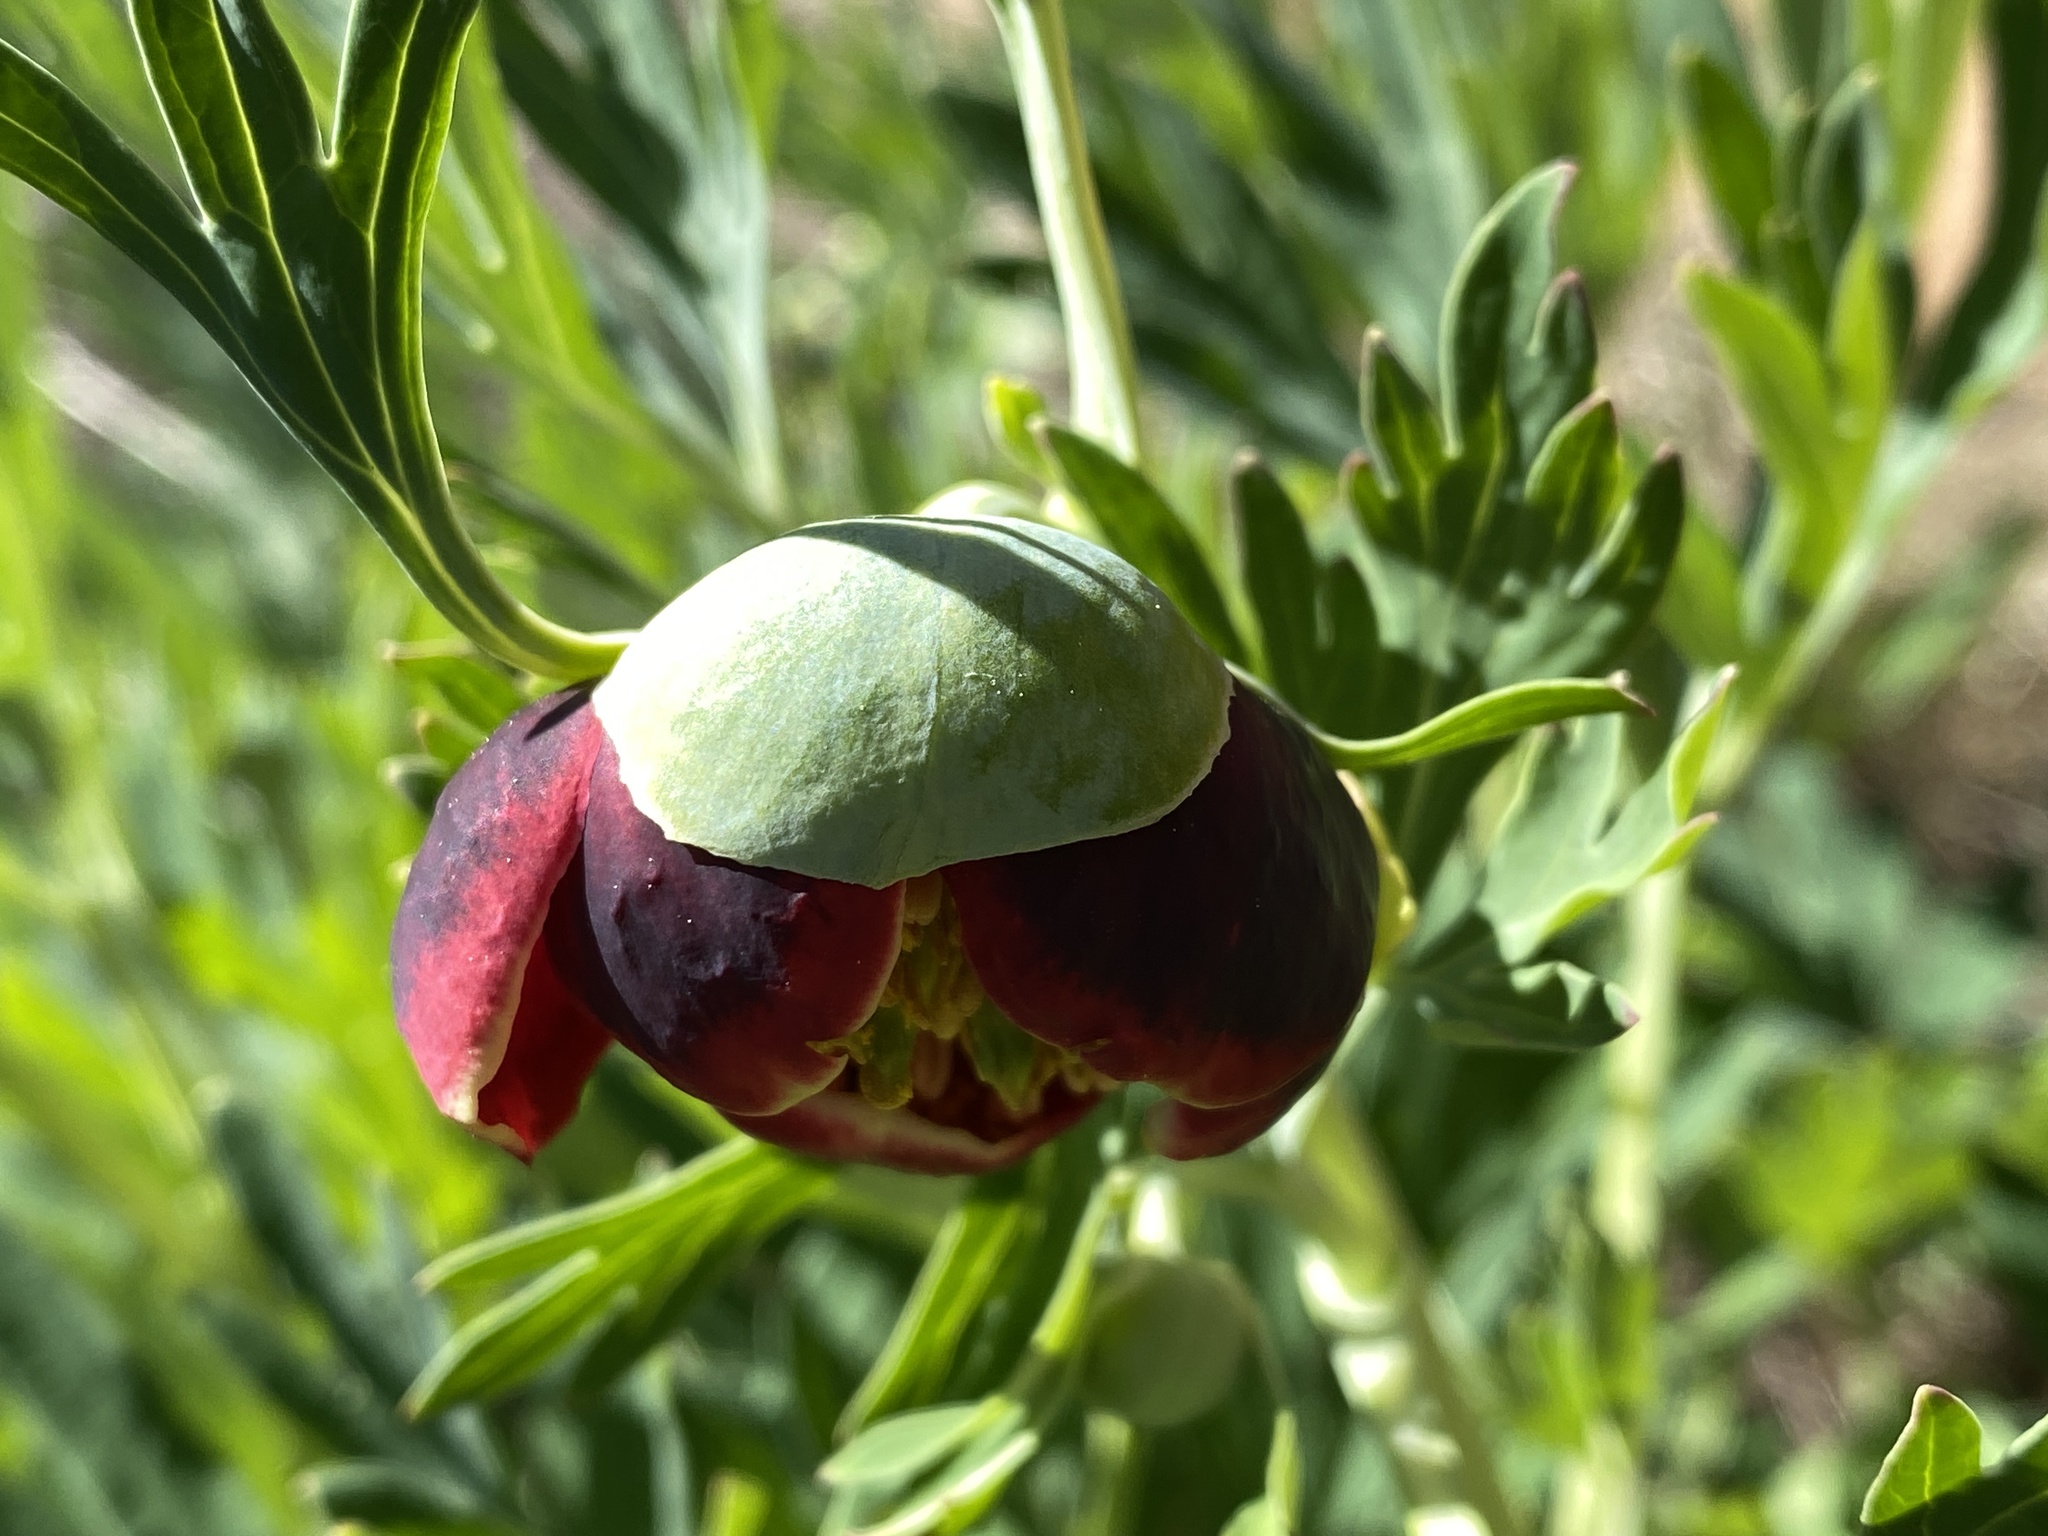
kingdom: Plantae
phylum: Tracheophyta
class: Magnoliopsida
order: Saxifragales
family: Paeoniaceae
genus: Paeonia
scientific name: Paeonia californica
